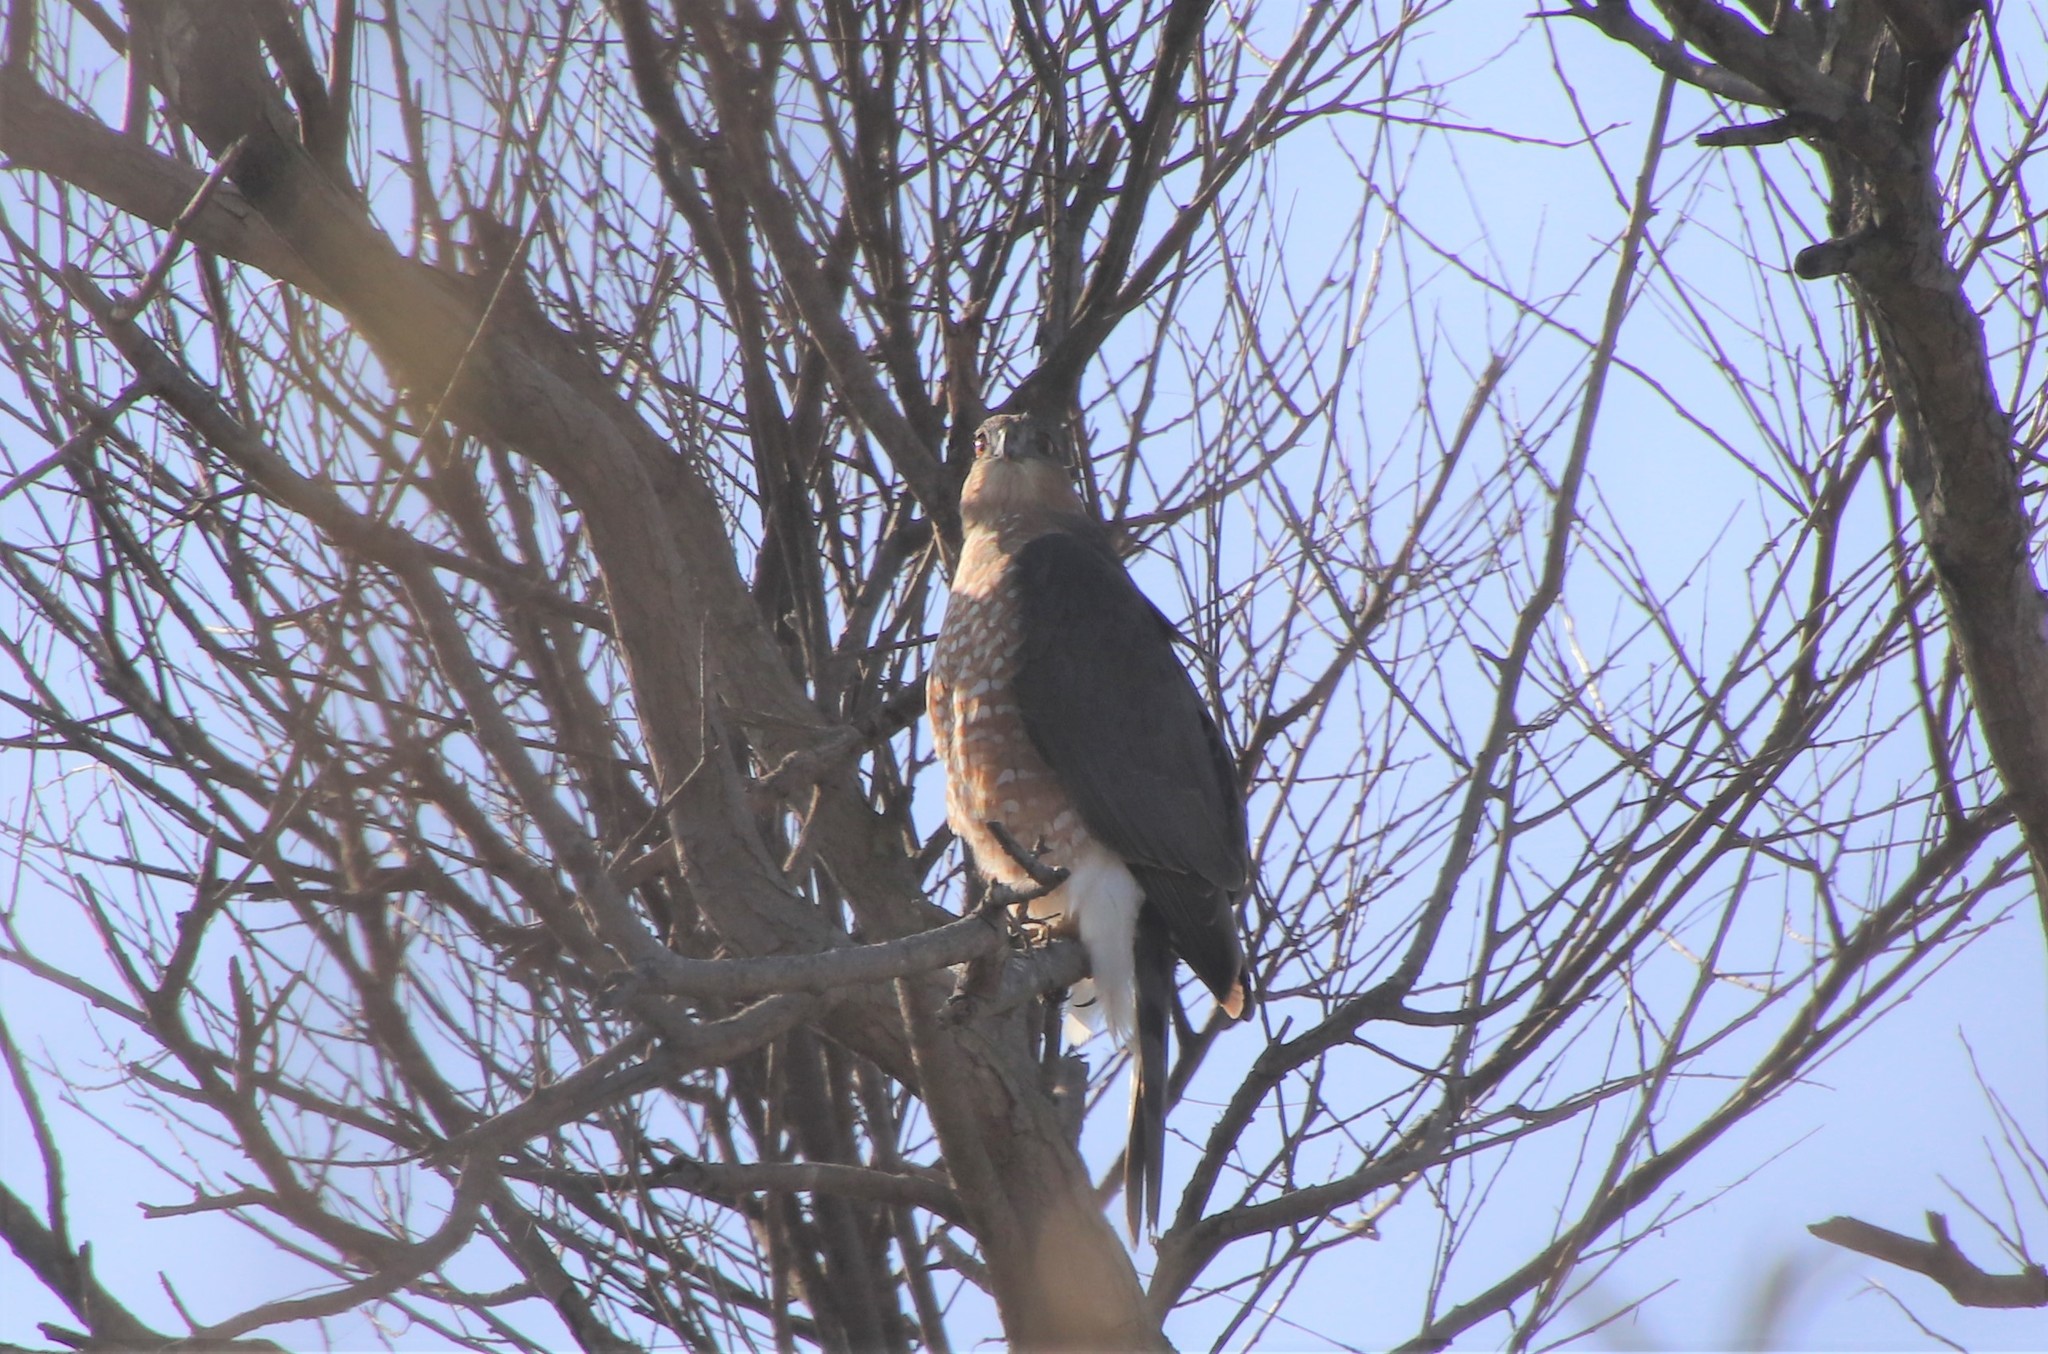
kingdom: Animalia
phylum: Chordata
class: Aves
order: Accipitriformes
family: Accipitridae
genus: Accipiter
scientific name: Accipiter cooperii
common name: Cooper's hawk
